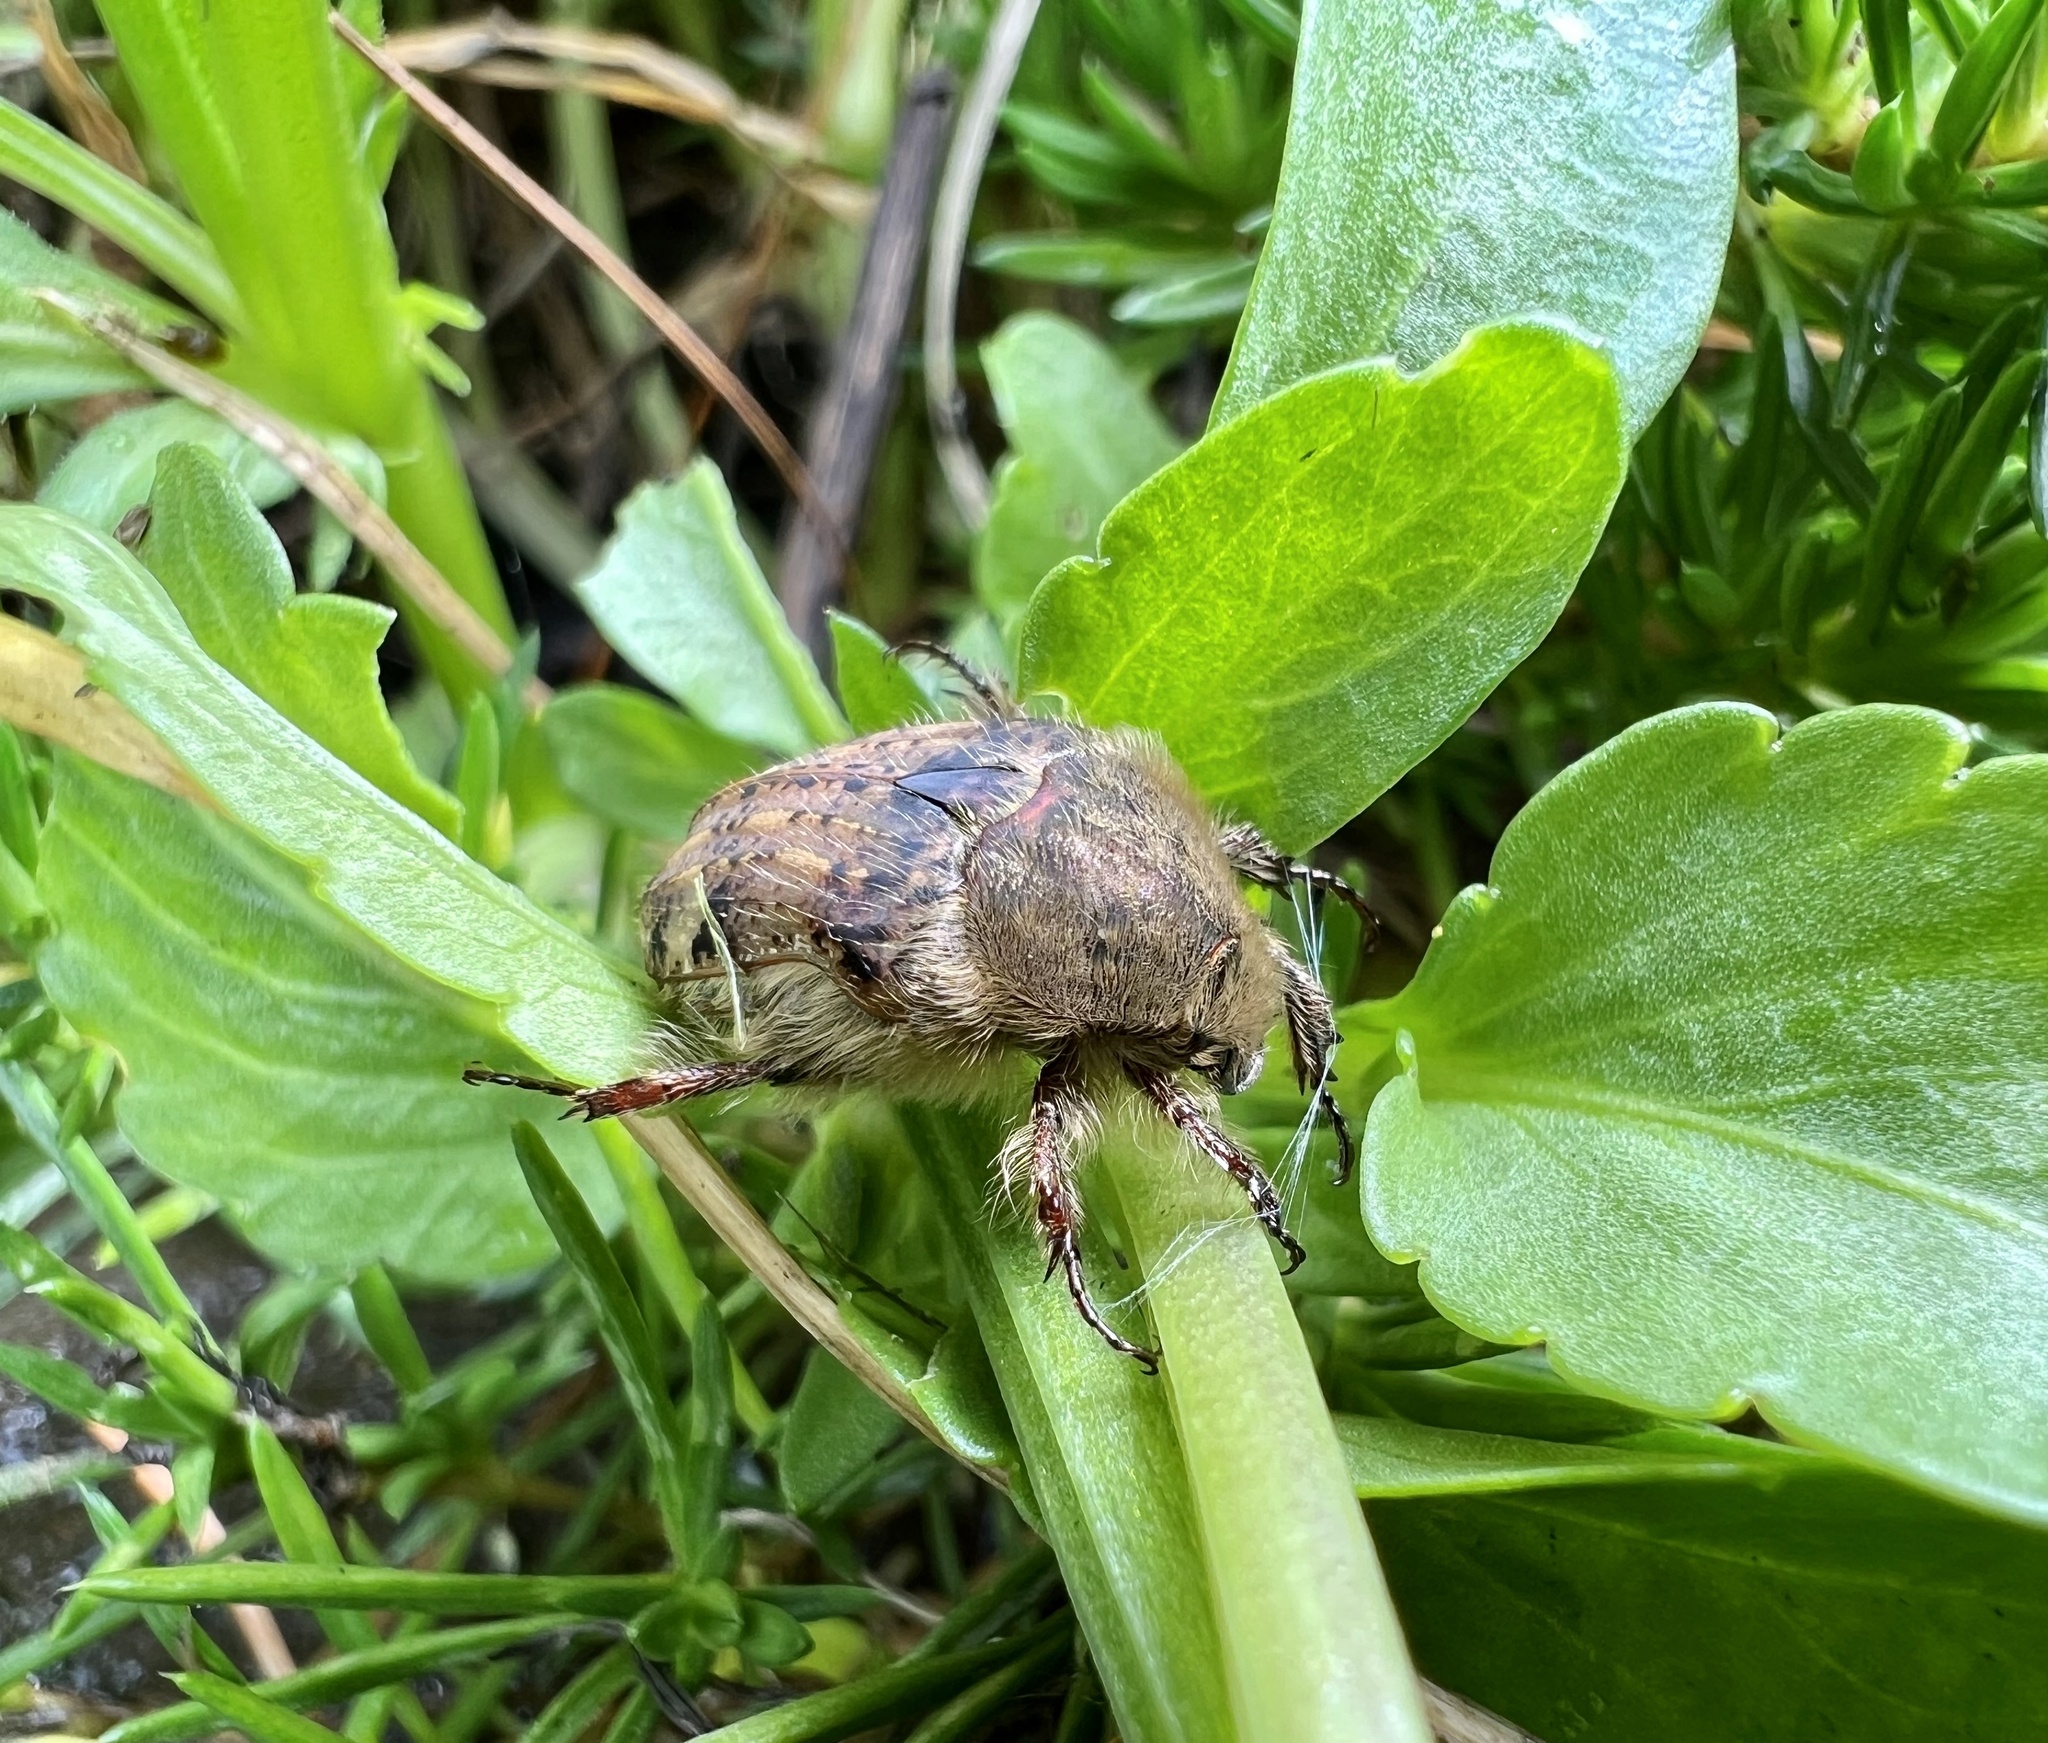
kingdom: Animalia
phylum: Arthropoda
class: Insecta
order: Coleoptera
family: Scarabaeidae
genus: Euphoria
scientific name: Euphoria inda
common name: Bumble flower beetle
